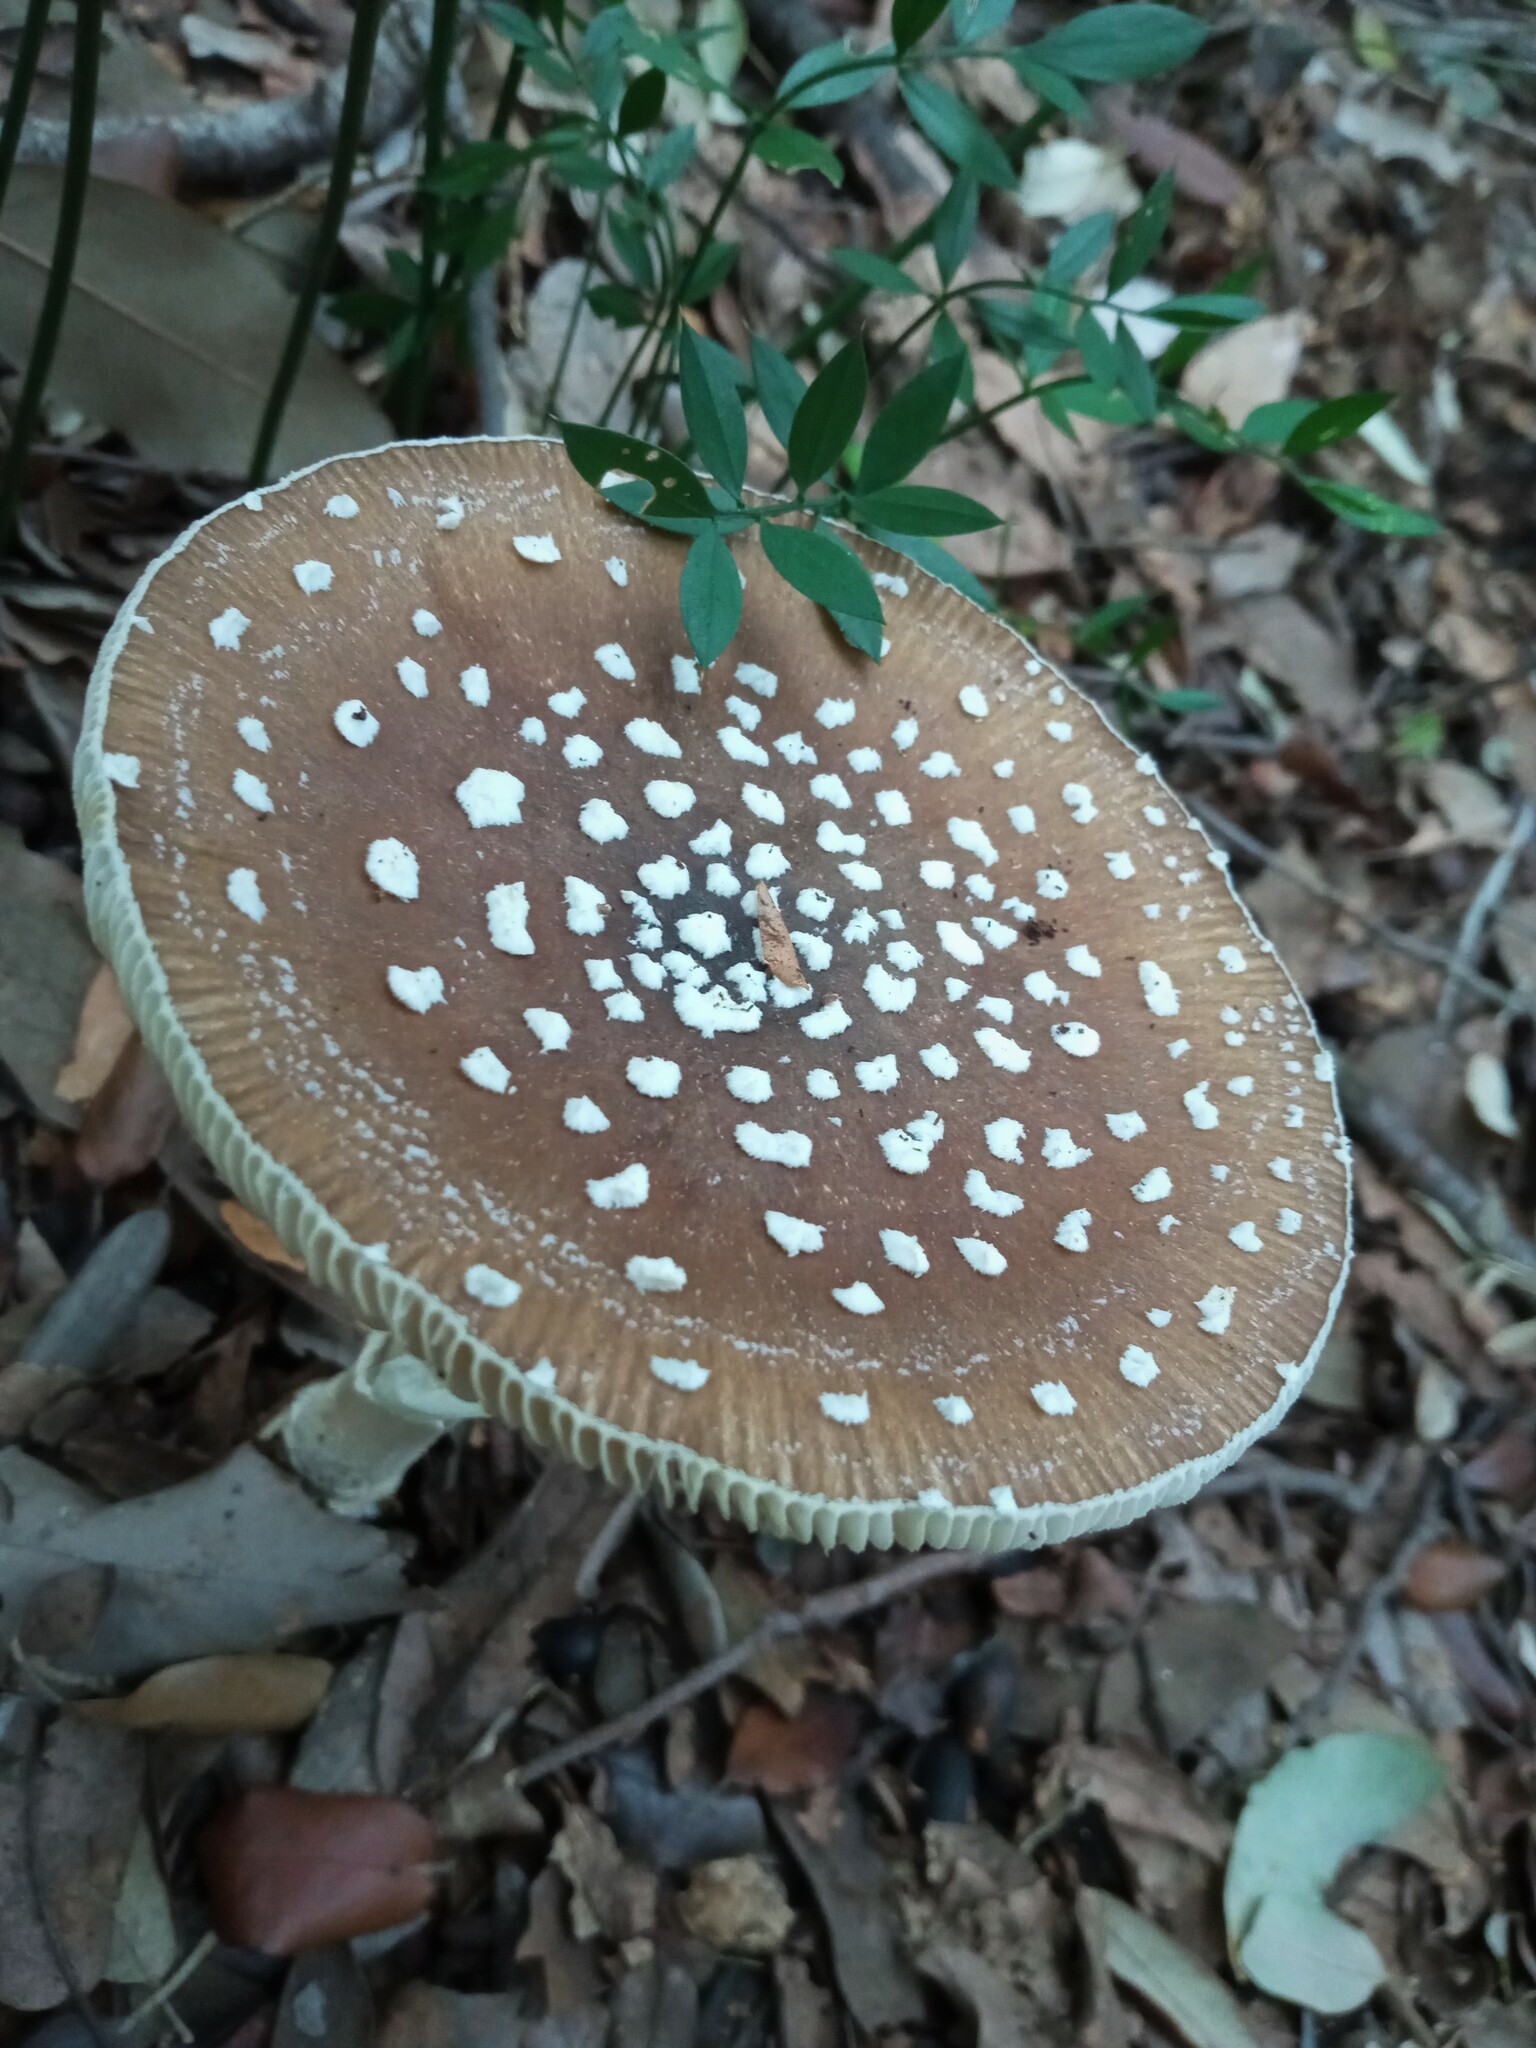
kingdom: Fungi
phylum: Basidiomycota
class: Agaricomycetes
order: Agaricales
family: Amanitaceae
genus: Amanita
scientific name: Amanita pantherina
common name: Panthercap
